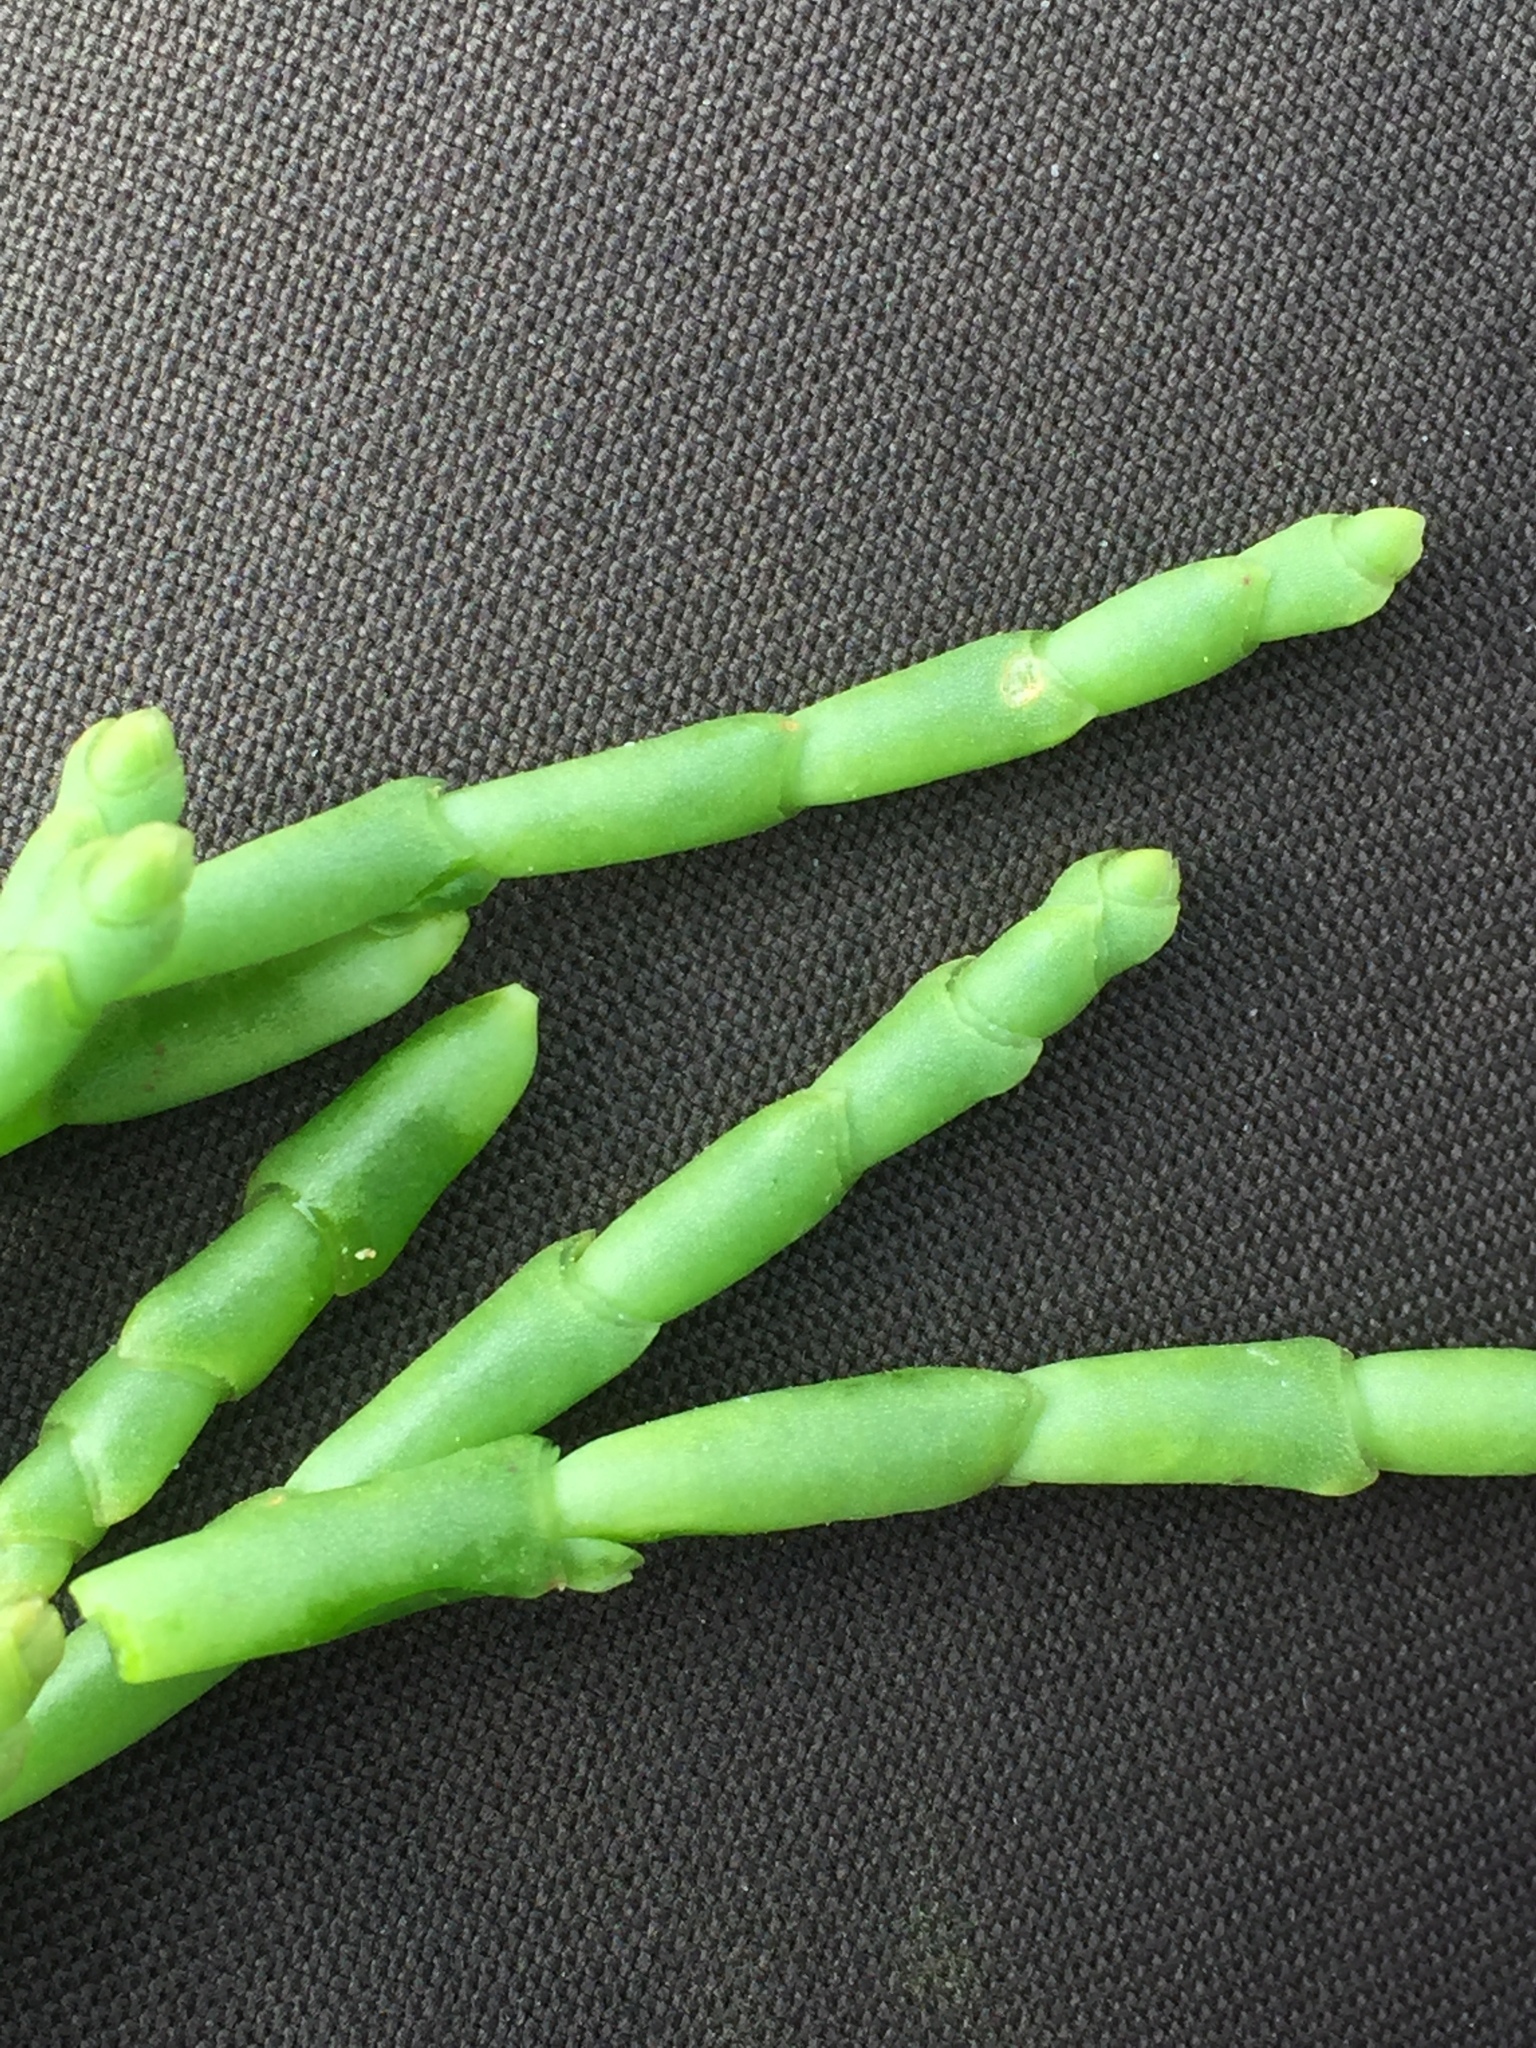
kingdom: Plantae
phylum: Tracheophyta
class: Magnoliopsida
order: Caryophyllales
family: Amaranthaceae
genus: Salicornia
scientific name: Salicornia procumbens
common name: Long-spiked glasswort
